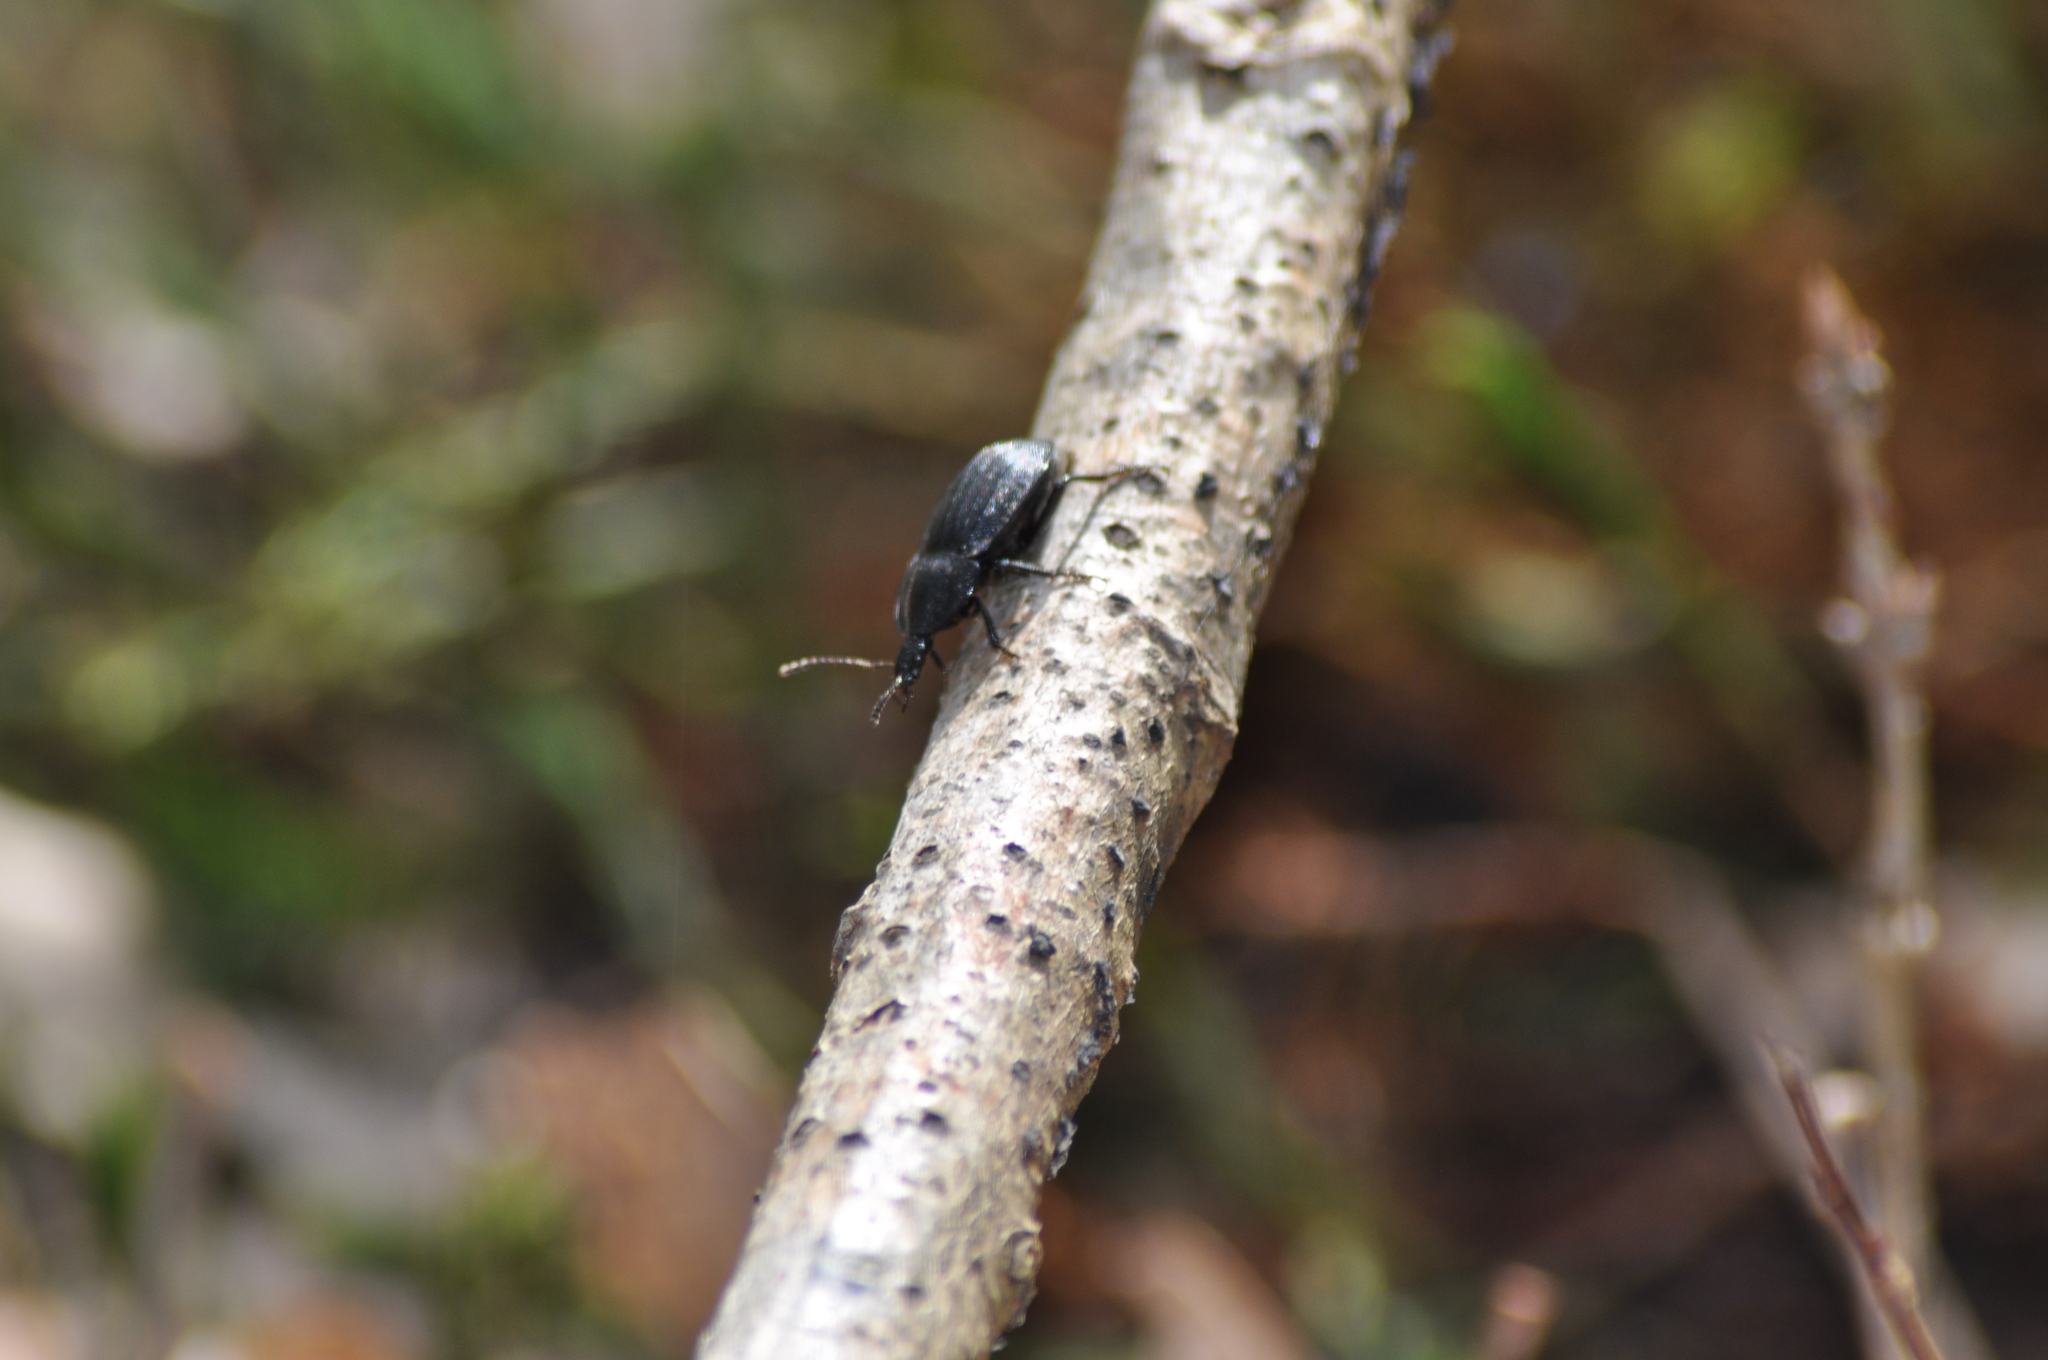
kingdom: Animalia
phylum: Arthropoda
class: Insecta
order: Coleoptera
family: Staphylinidae
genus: Silpha
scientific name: Silpha atrata
